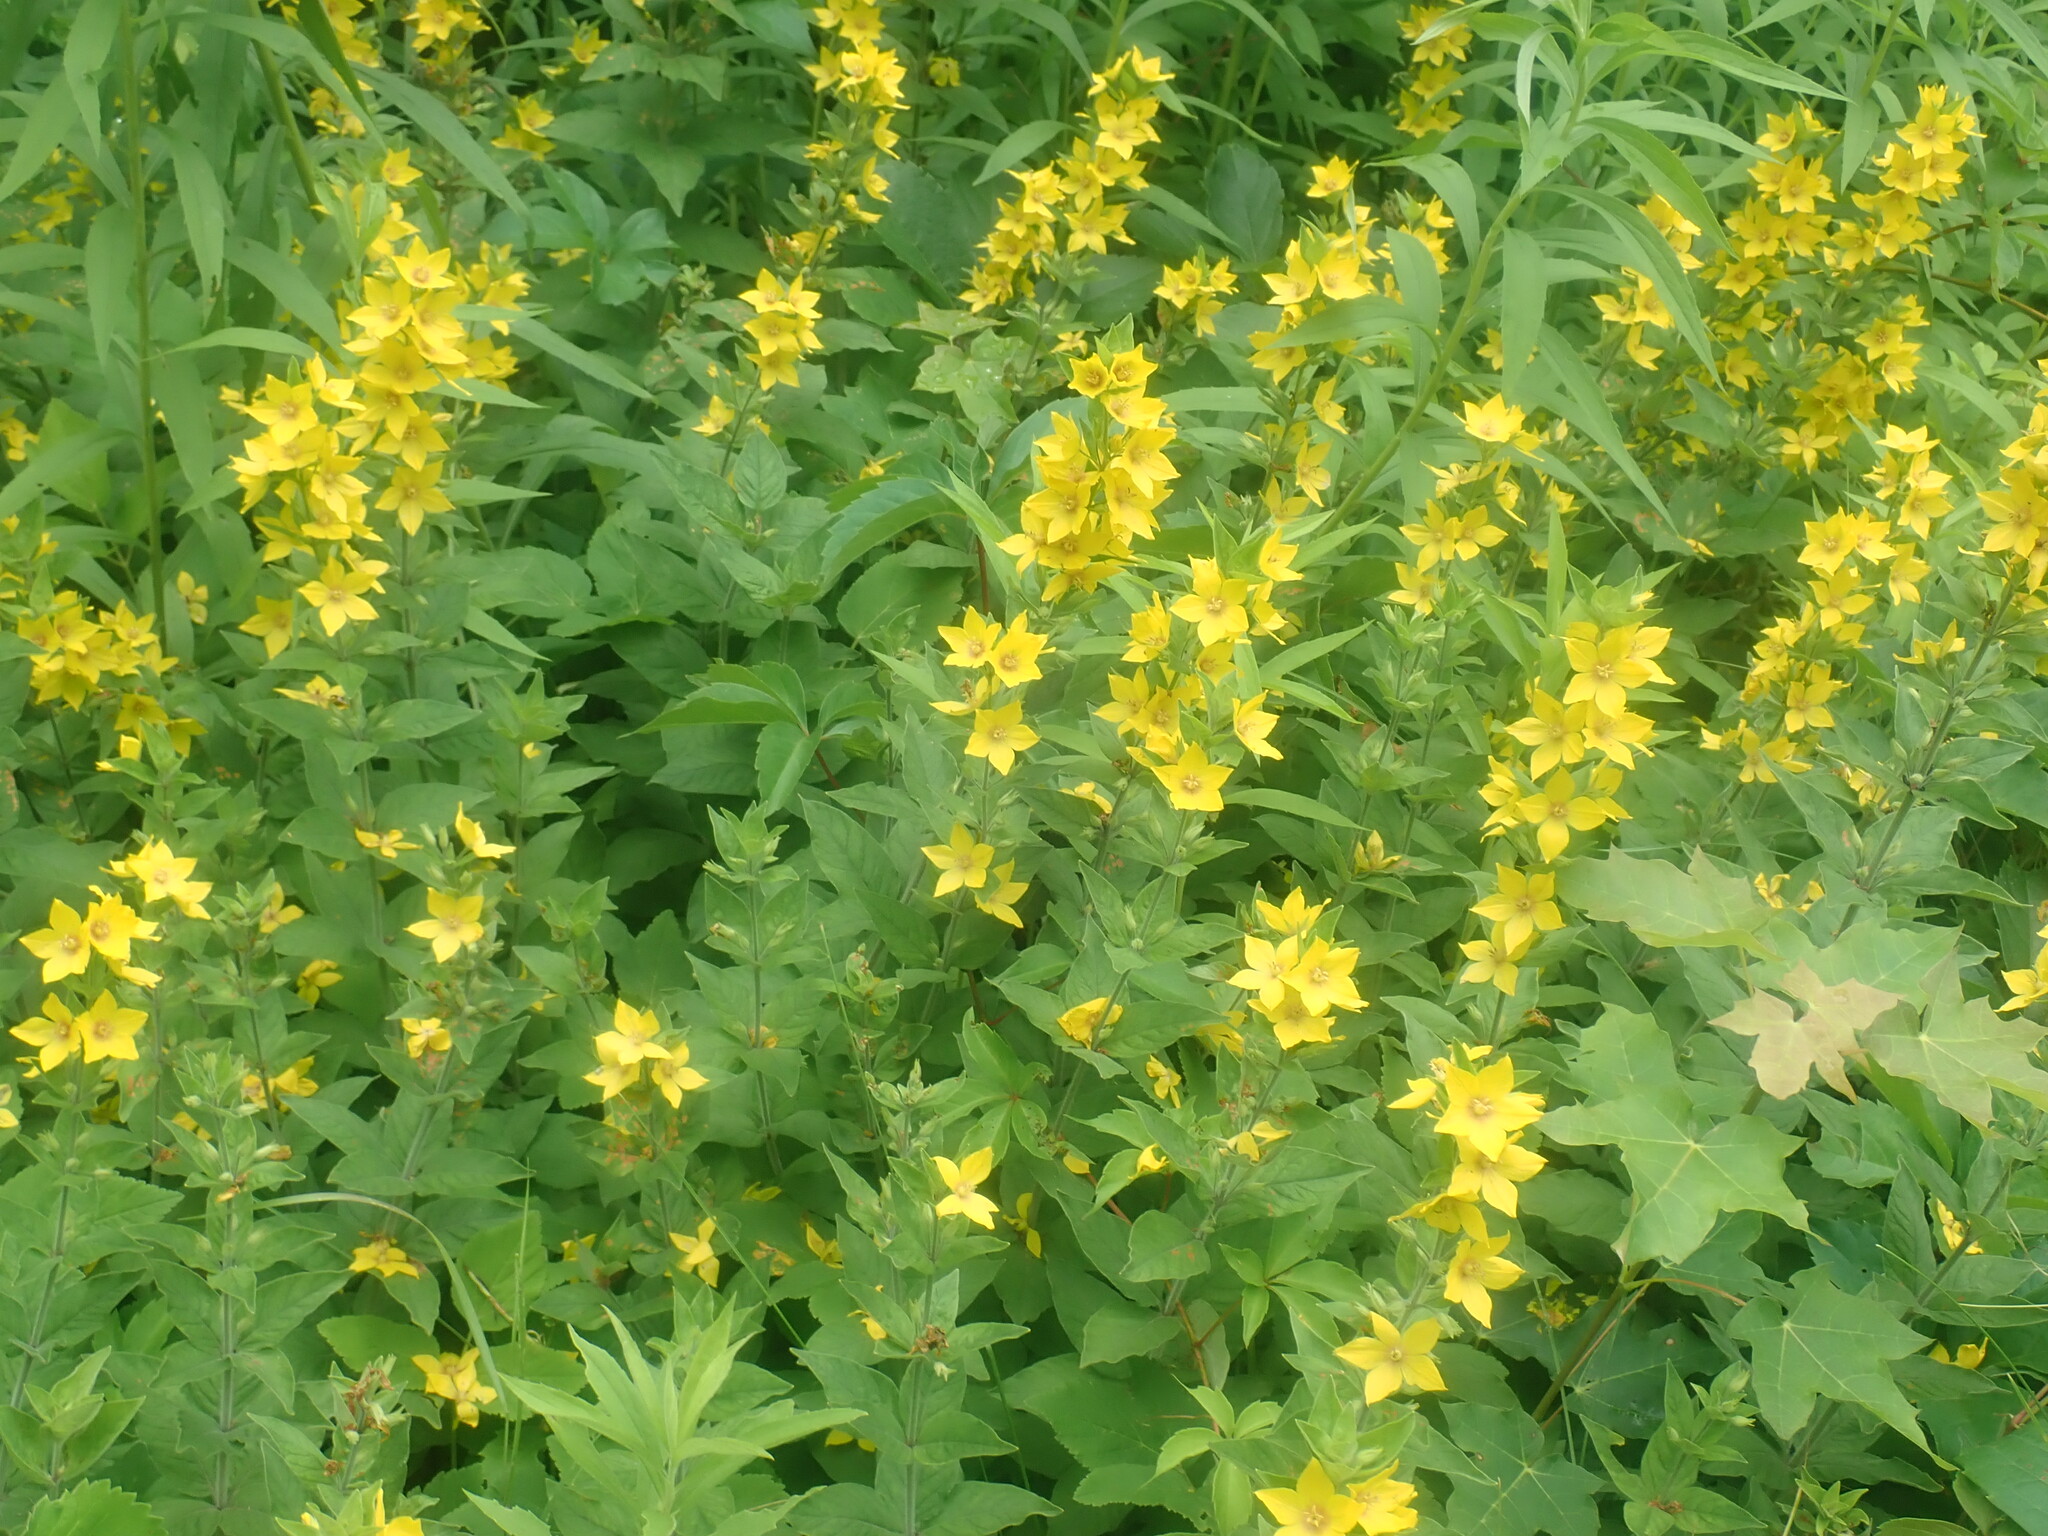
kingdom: Plantae
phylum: Tracheophyta
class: Magnoliopsida
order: Ericales
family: Primulaceae
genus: Lysimachia
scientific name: Lysimachia punctata
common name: Dotted loosestrife
